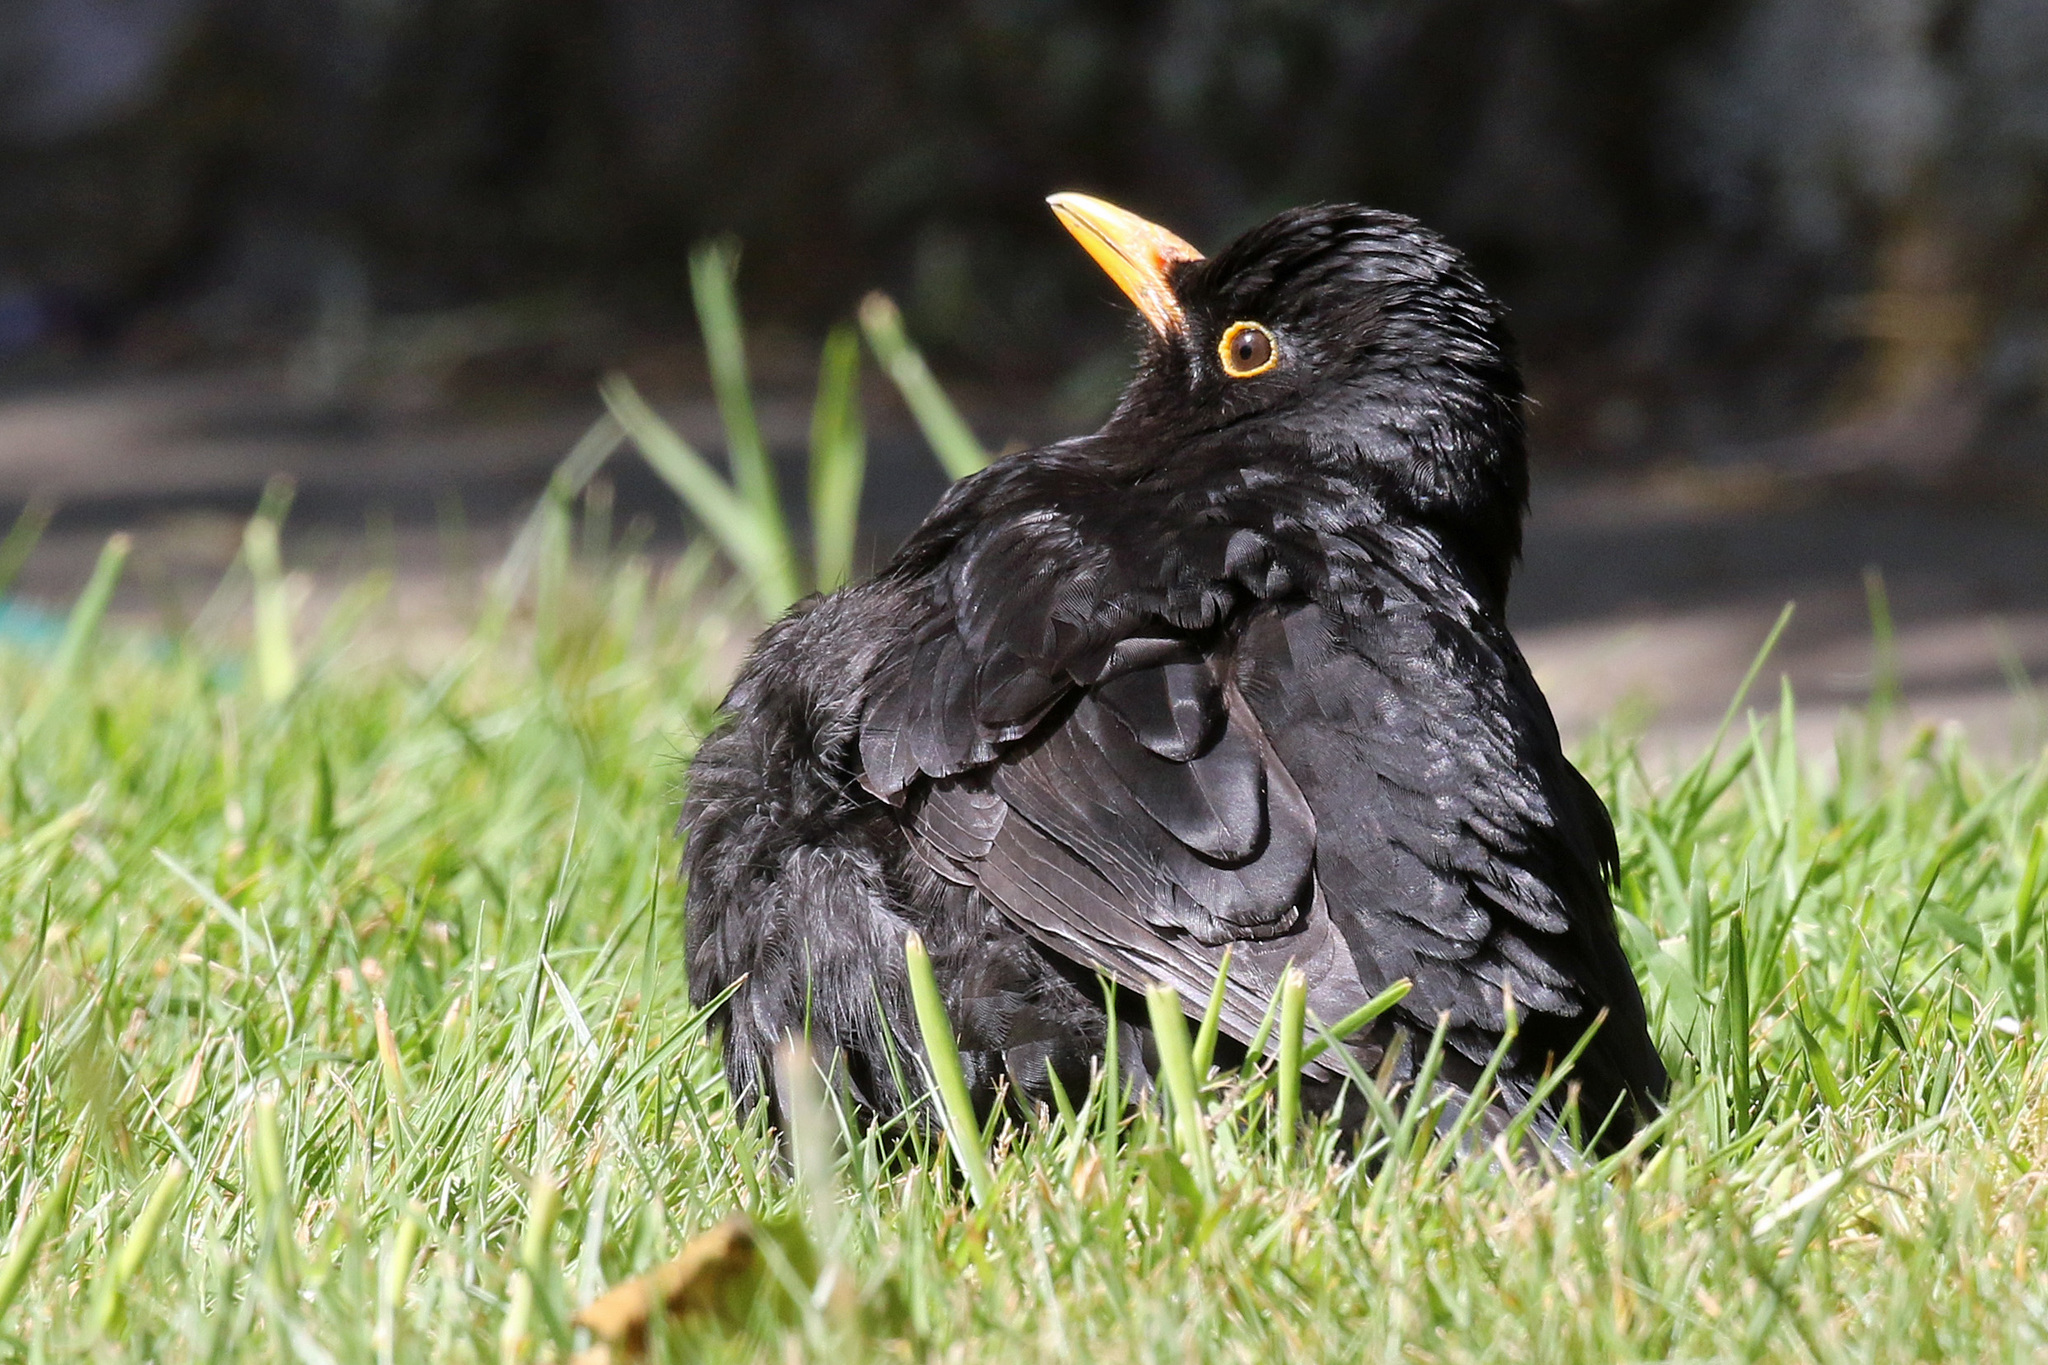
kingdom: Animalia
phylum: Chordata
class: Aves
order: Passeriformes
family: Turdidae
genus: Turdus
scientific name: Turdus merula
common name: Common blackbird
